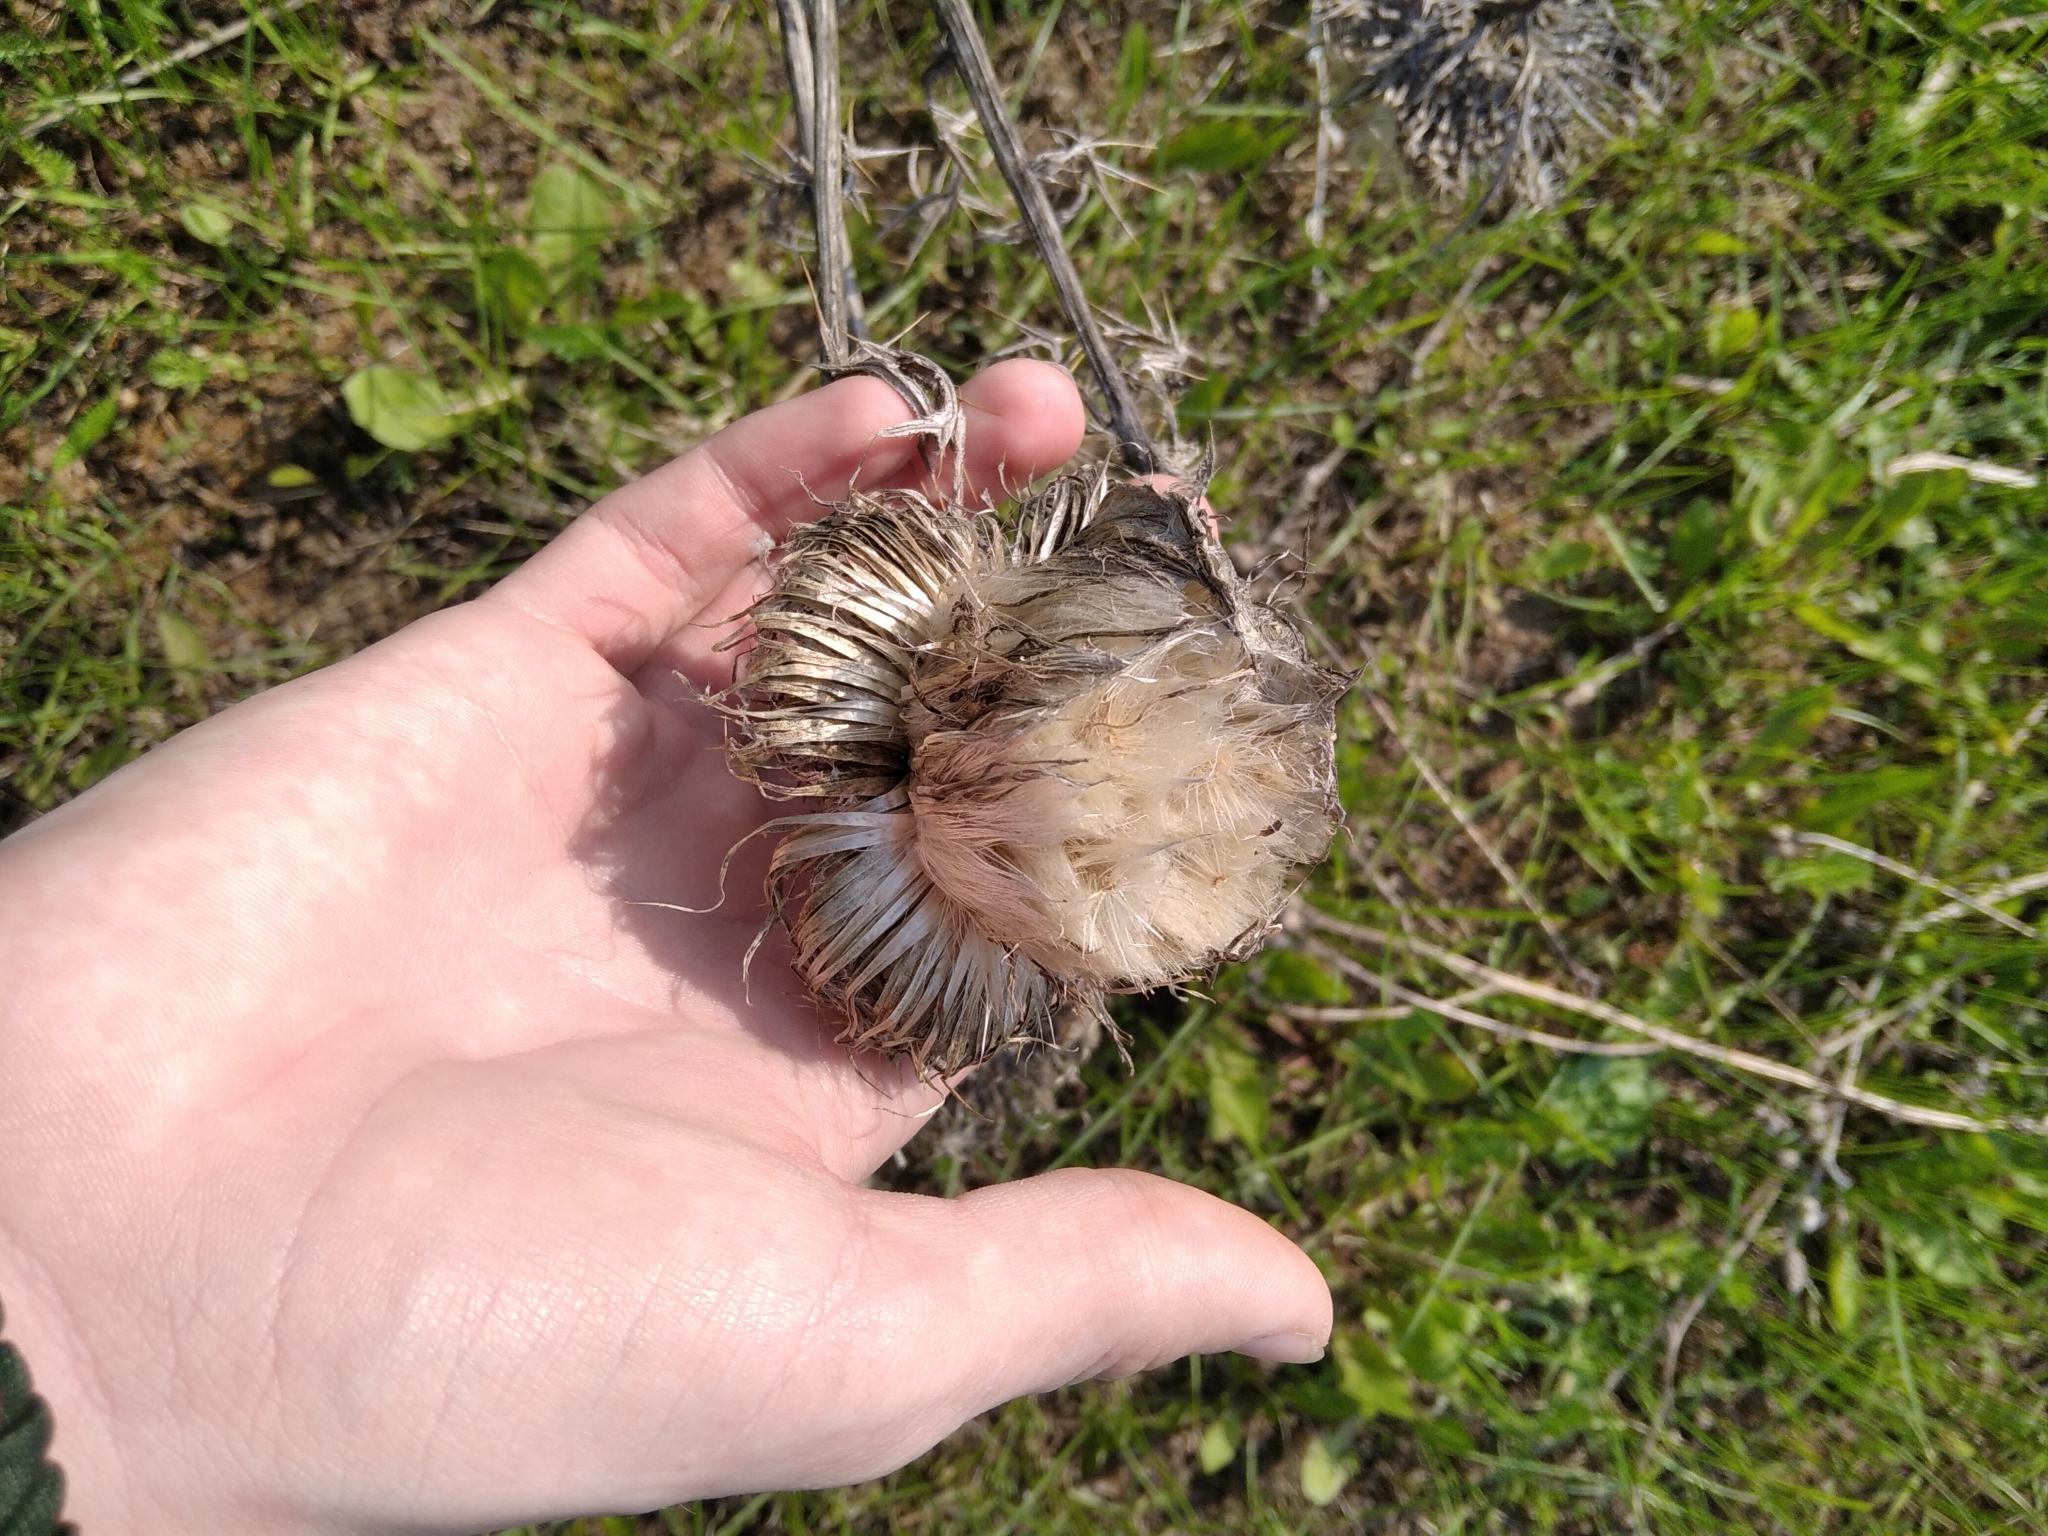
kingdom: Plantae
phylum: Tracheophyta
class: Magnoliopsida
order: Asterales
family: Asteraceae
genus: Lophiolepis
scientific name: Lophiolepis decussata
